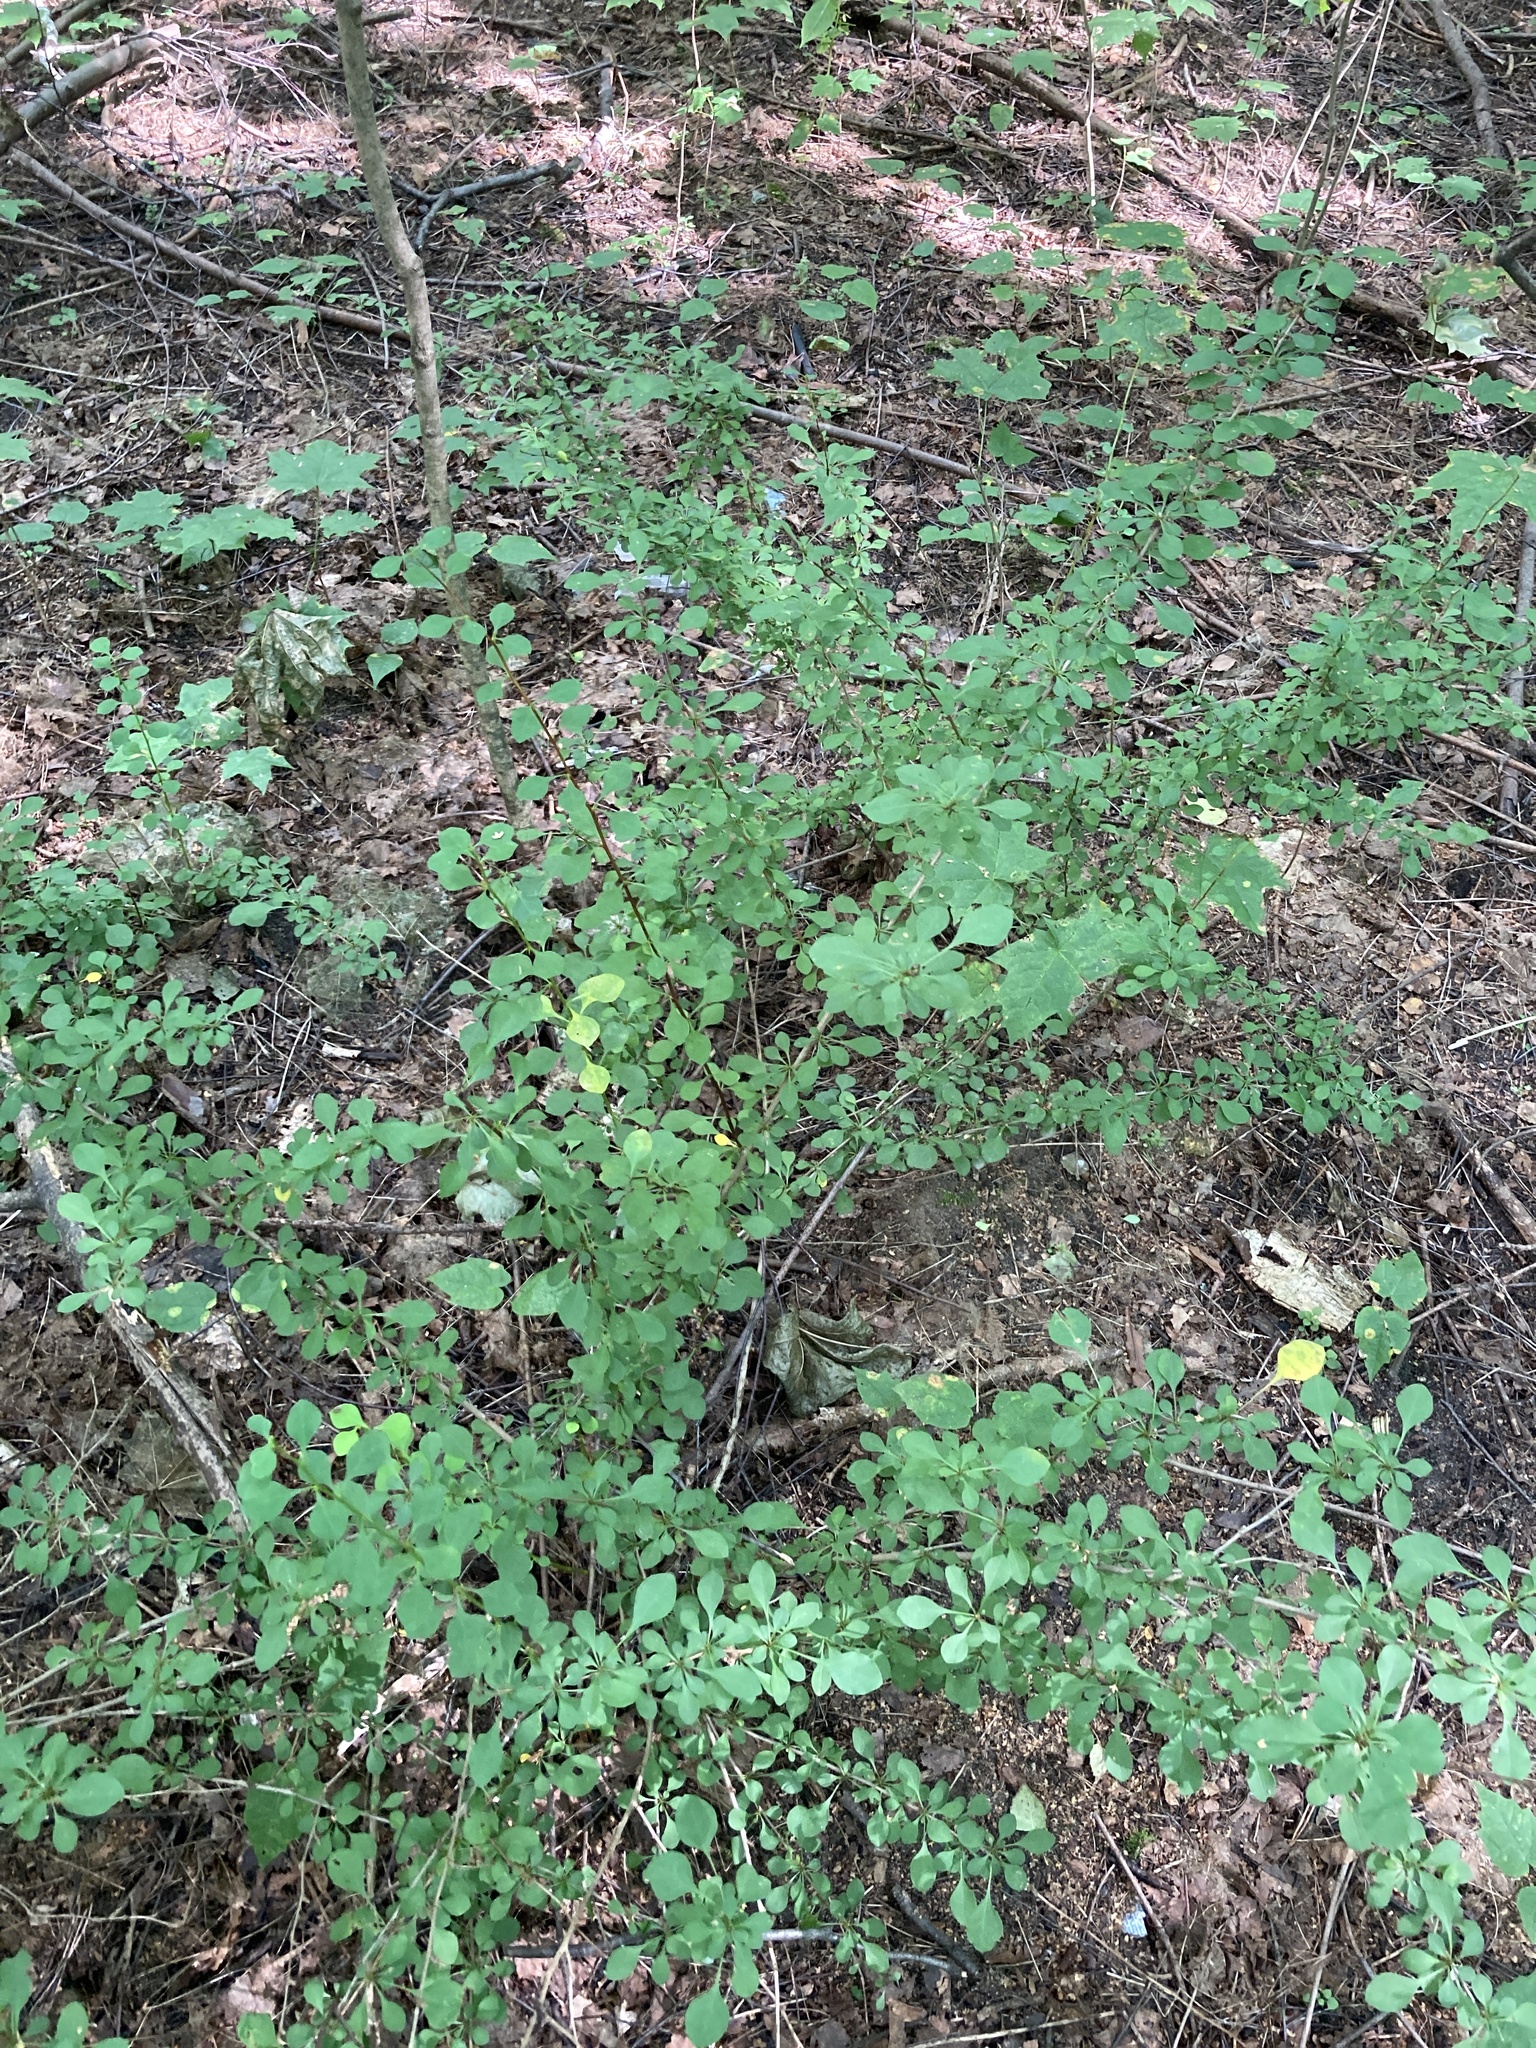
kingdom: Plantae
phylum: Tracheophyta
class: Magnoliopsida
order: Ranunculales
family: Berberidaceae
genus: Berberis
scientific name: Berberis thunbergii
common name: Japanese barberry
